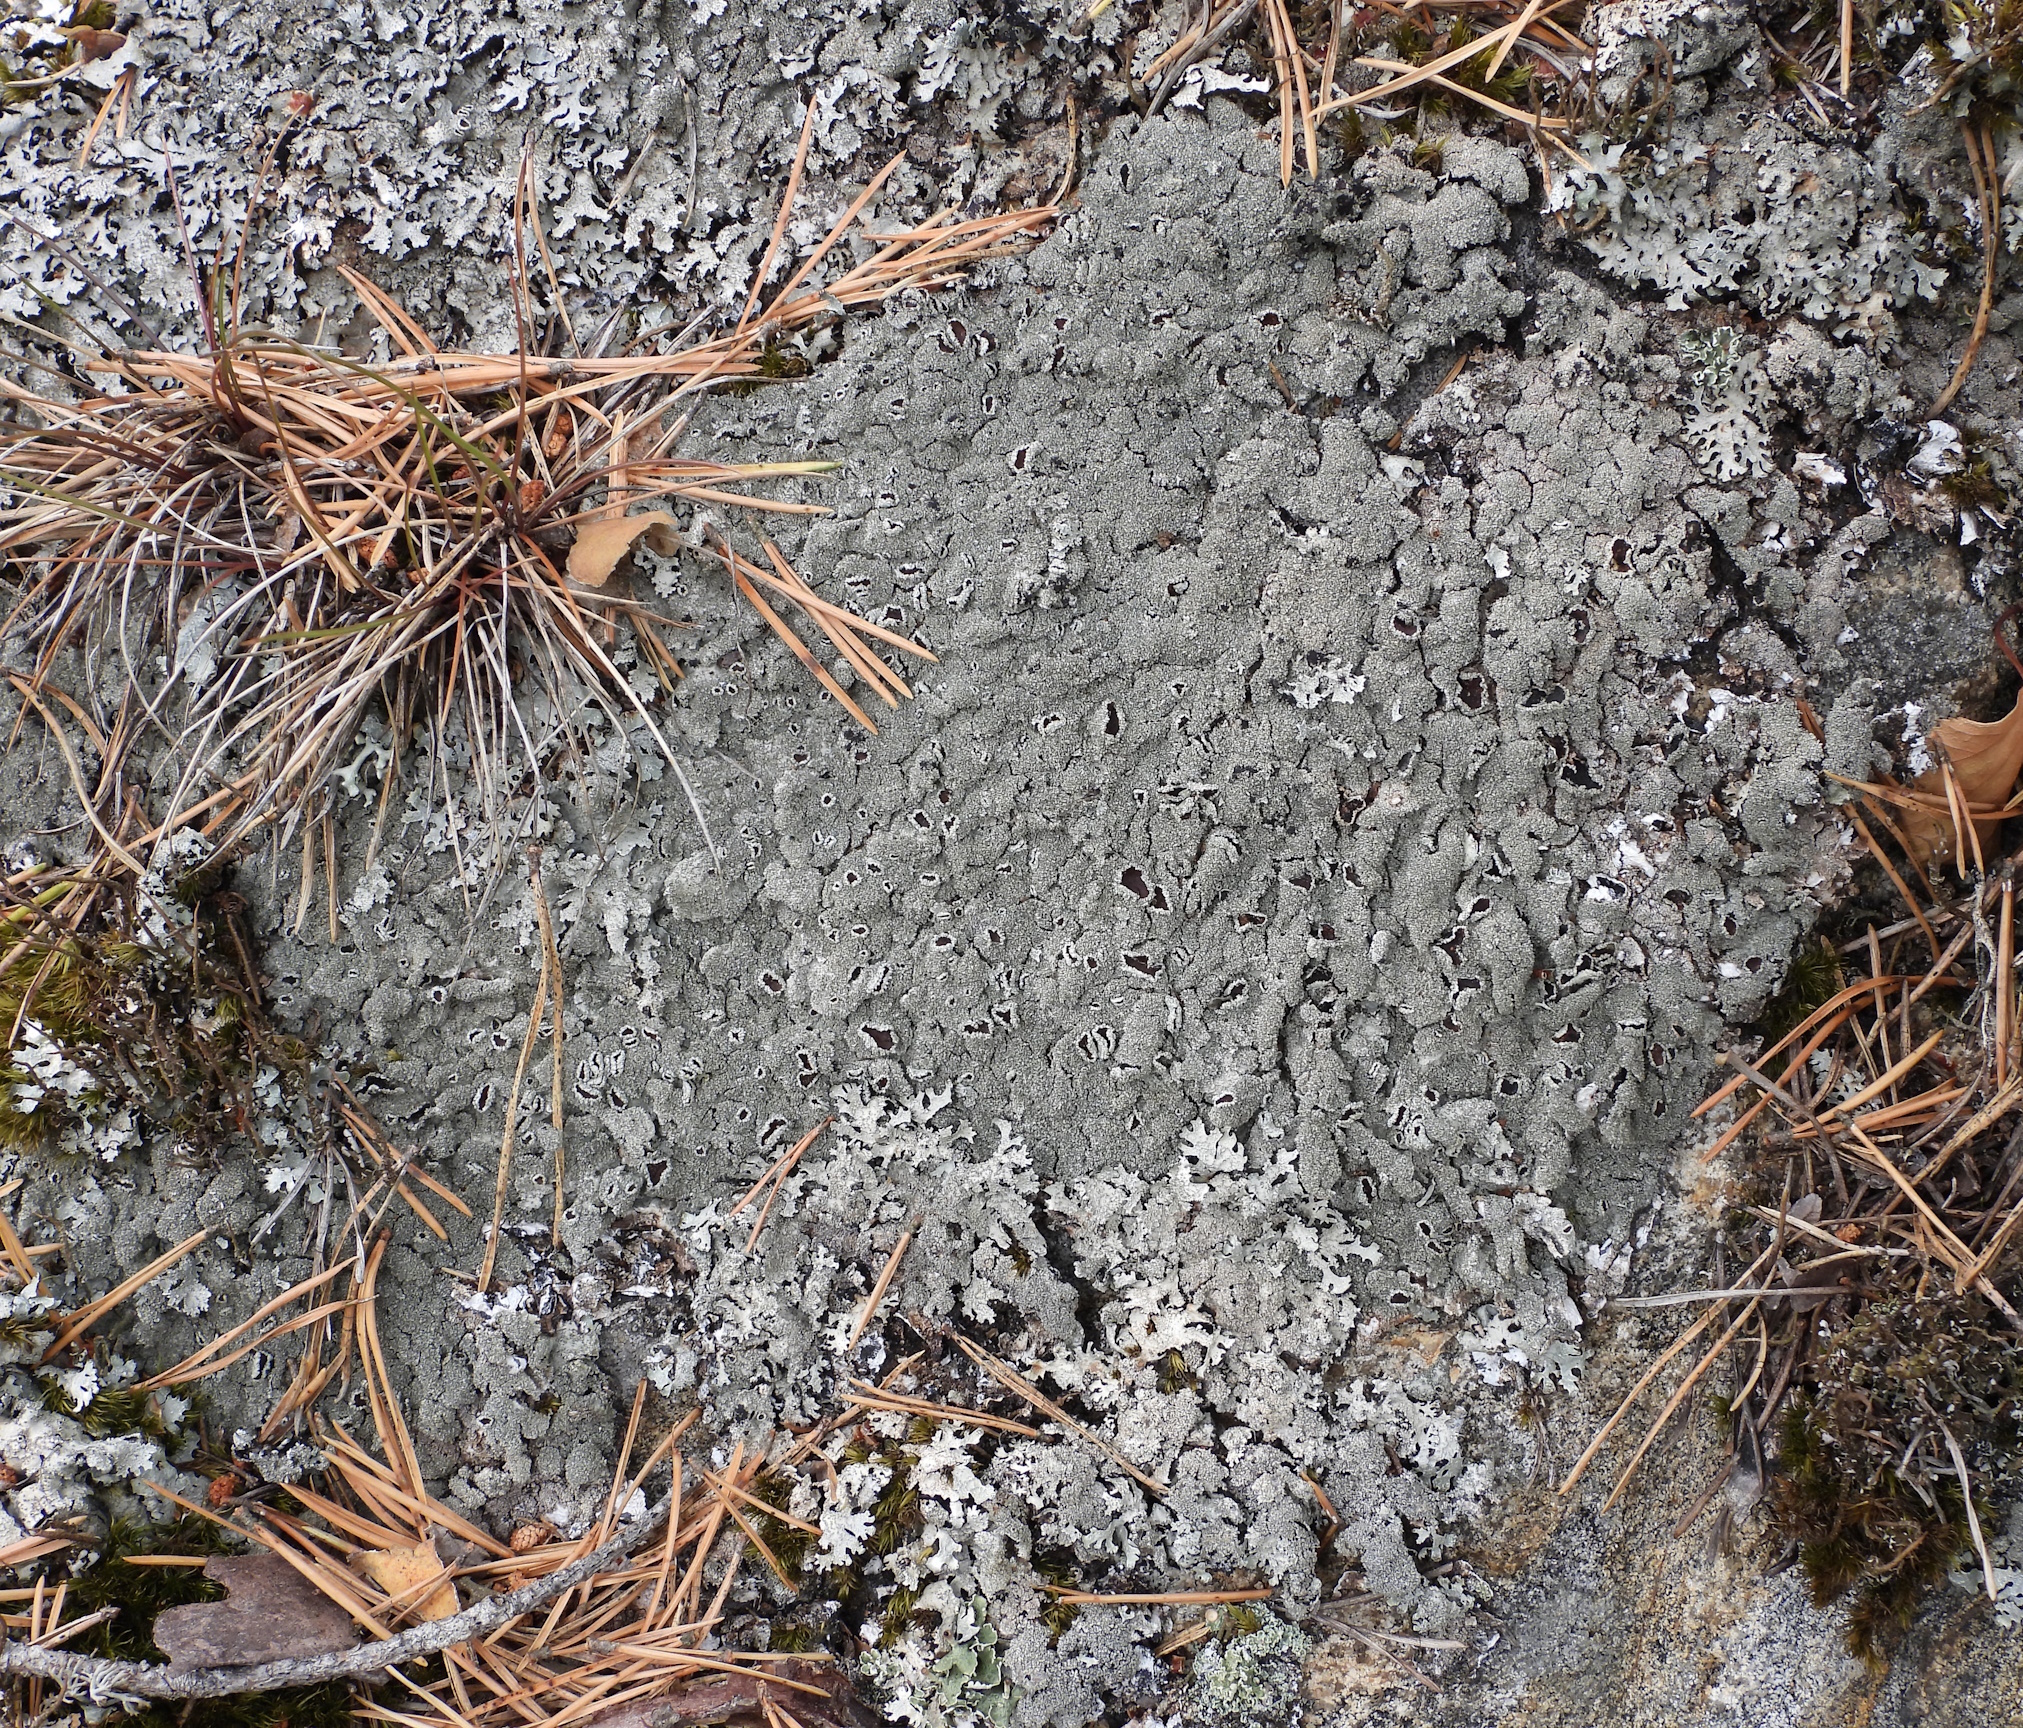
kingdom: Fungi
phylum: Ascomycota
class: Lecanoromycetes
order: Lecanorales
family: Parmeliaceae
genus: Parmelia
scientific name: Parmelia saxatilis
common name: Salted shield lichen
